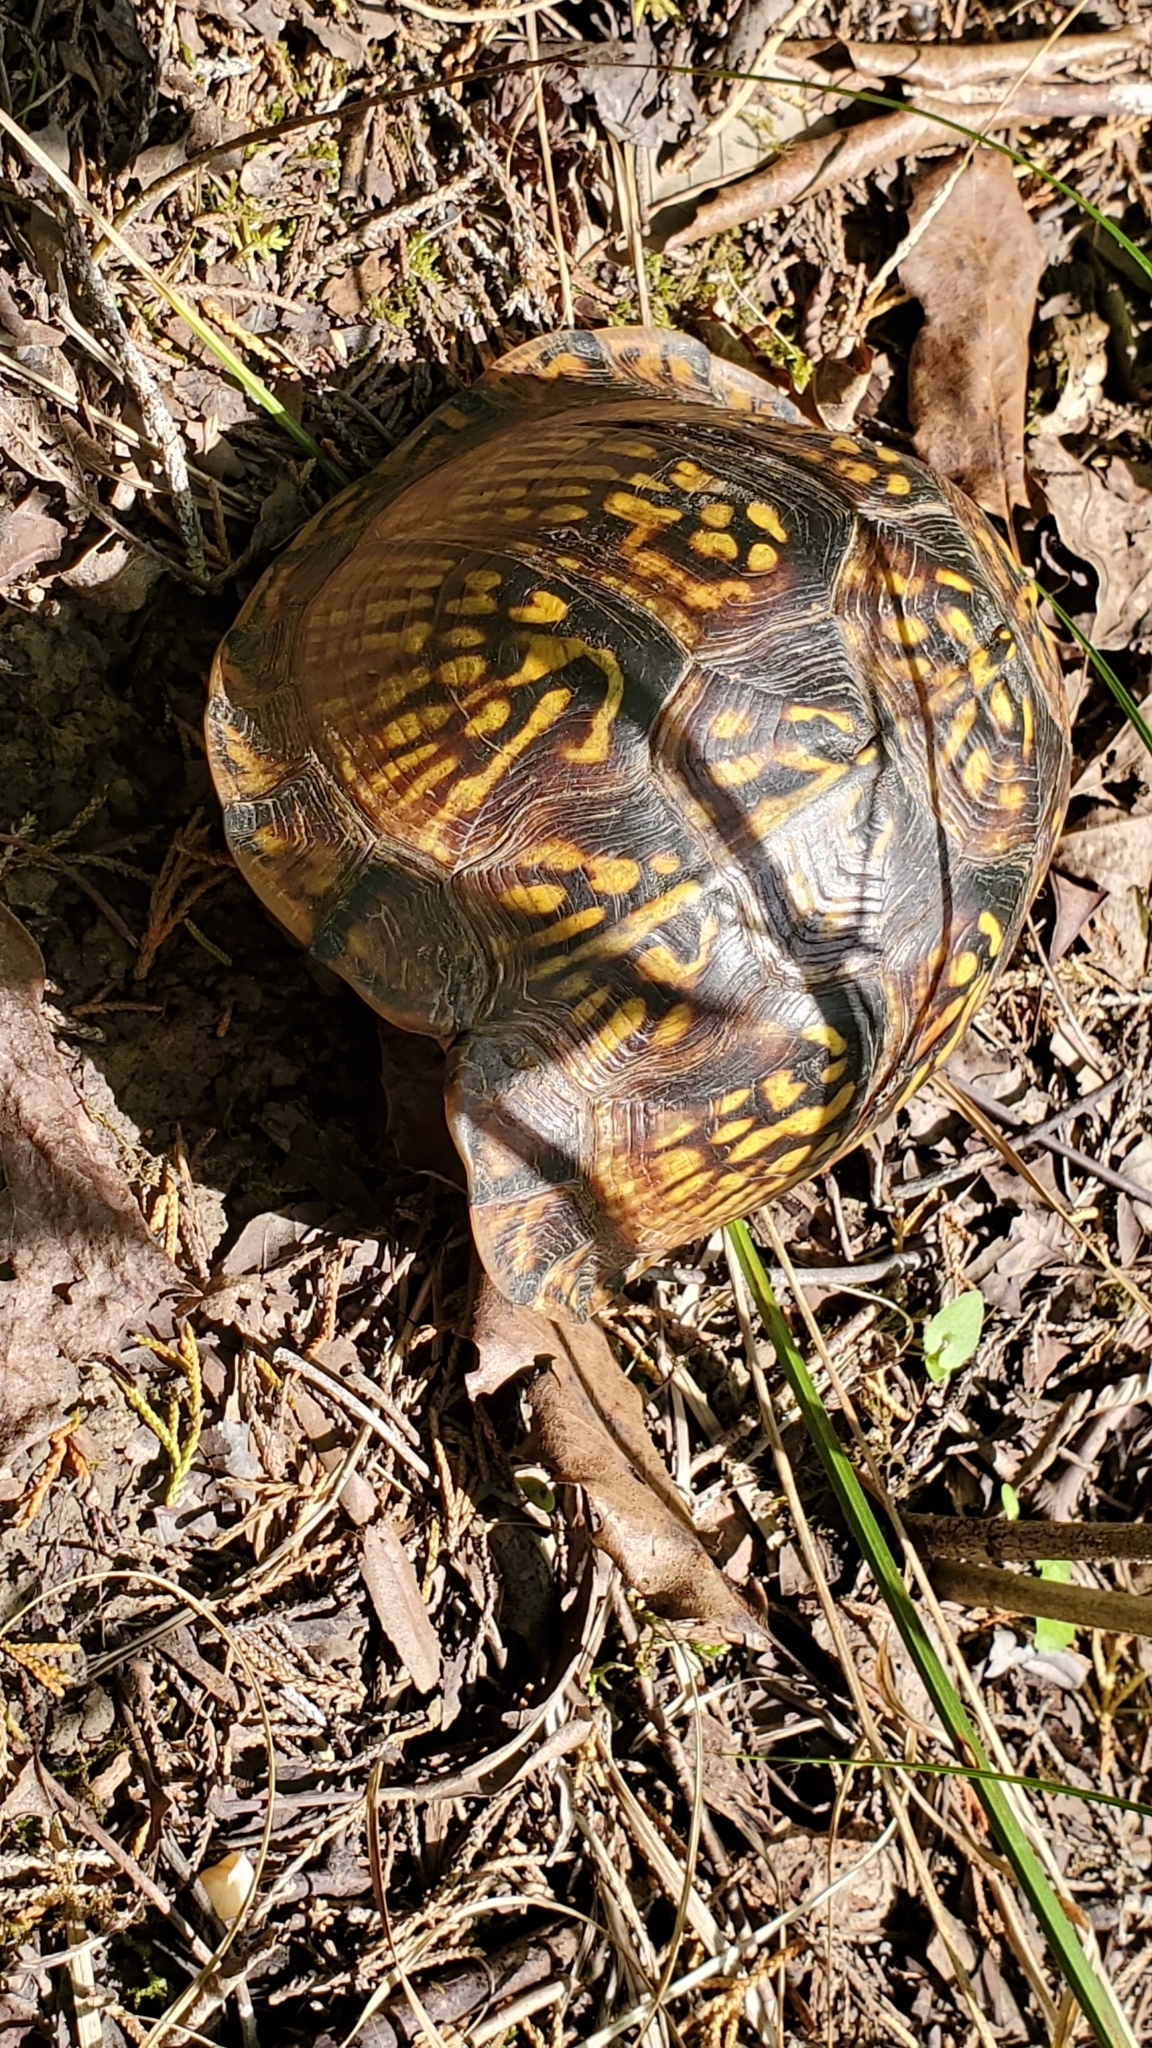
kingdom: Animalia
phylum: Chordata
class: Testudines
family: Emydidae
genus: Terrapene
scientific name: Terrapene carolina
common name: Common box turtle
